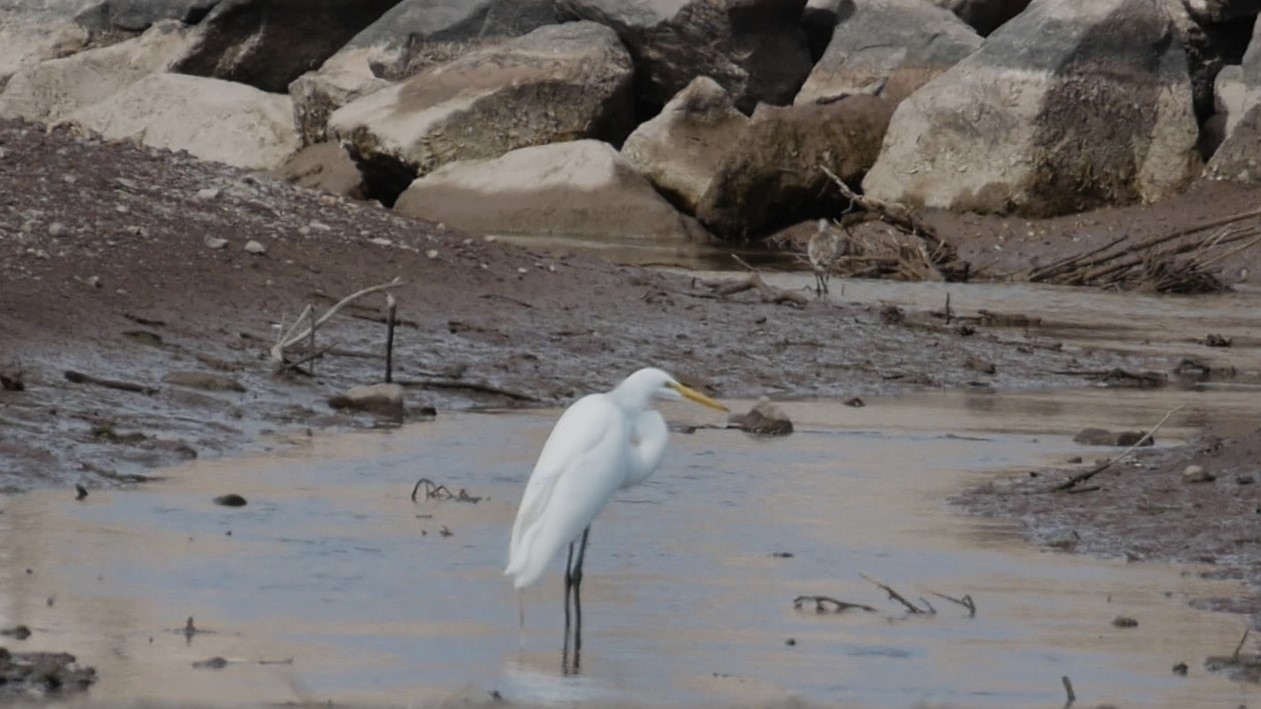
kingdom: Animalia
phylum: Chordata
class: Aves
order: Pelecaniformes
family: Ardeidae
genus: Ardea
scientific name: Ardea alba
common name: Great egret
